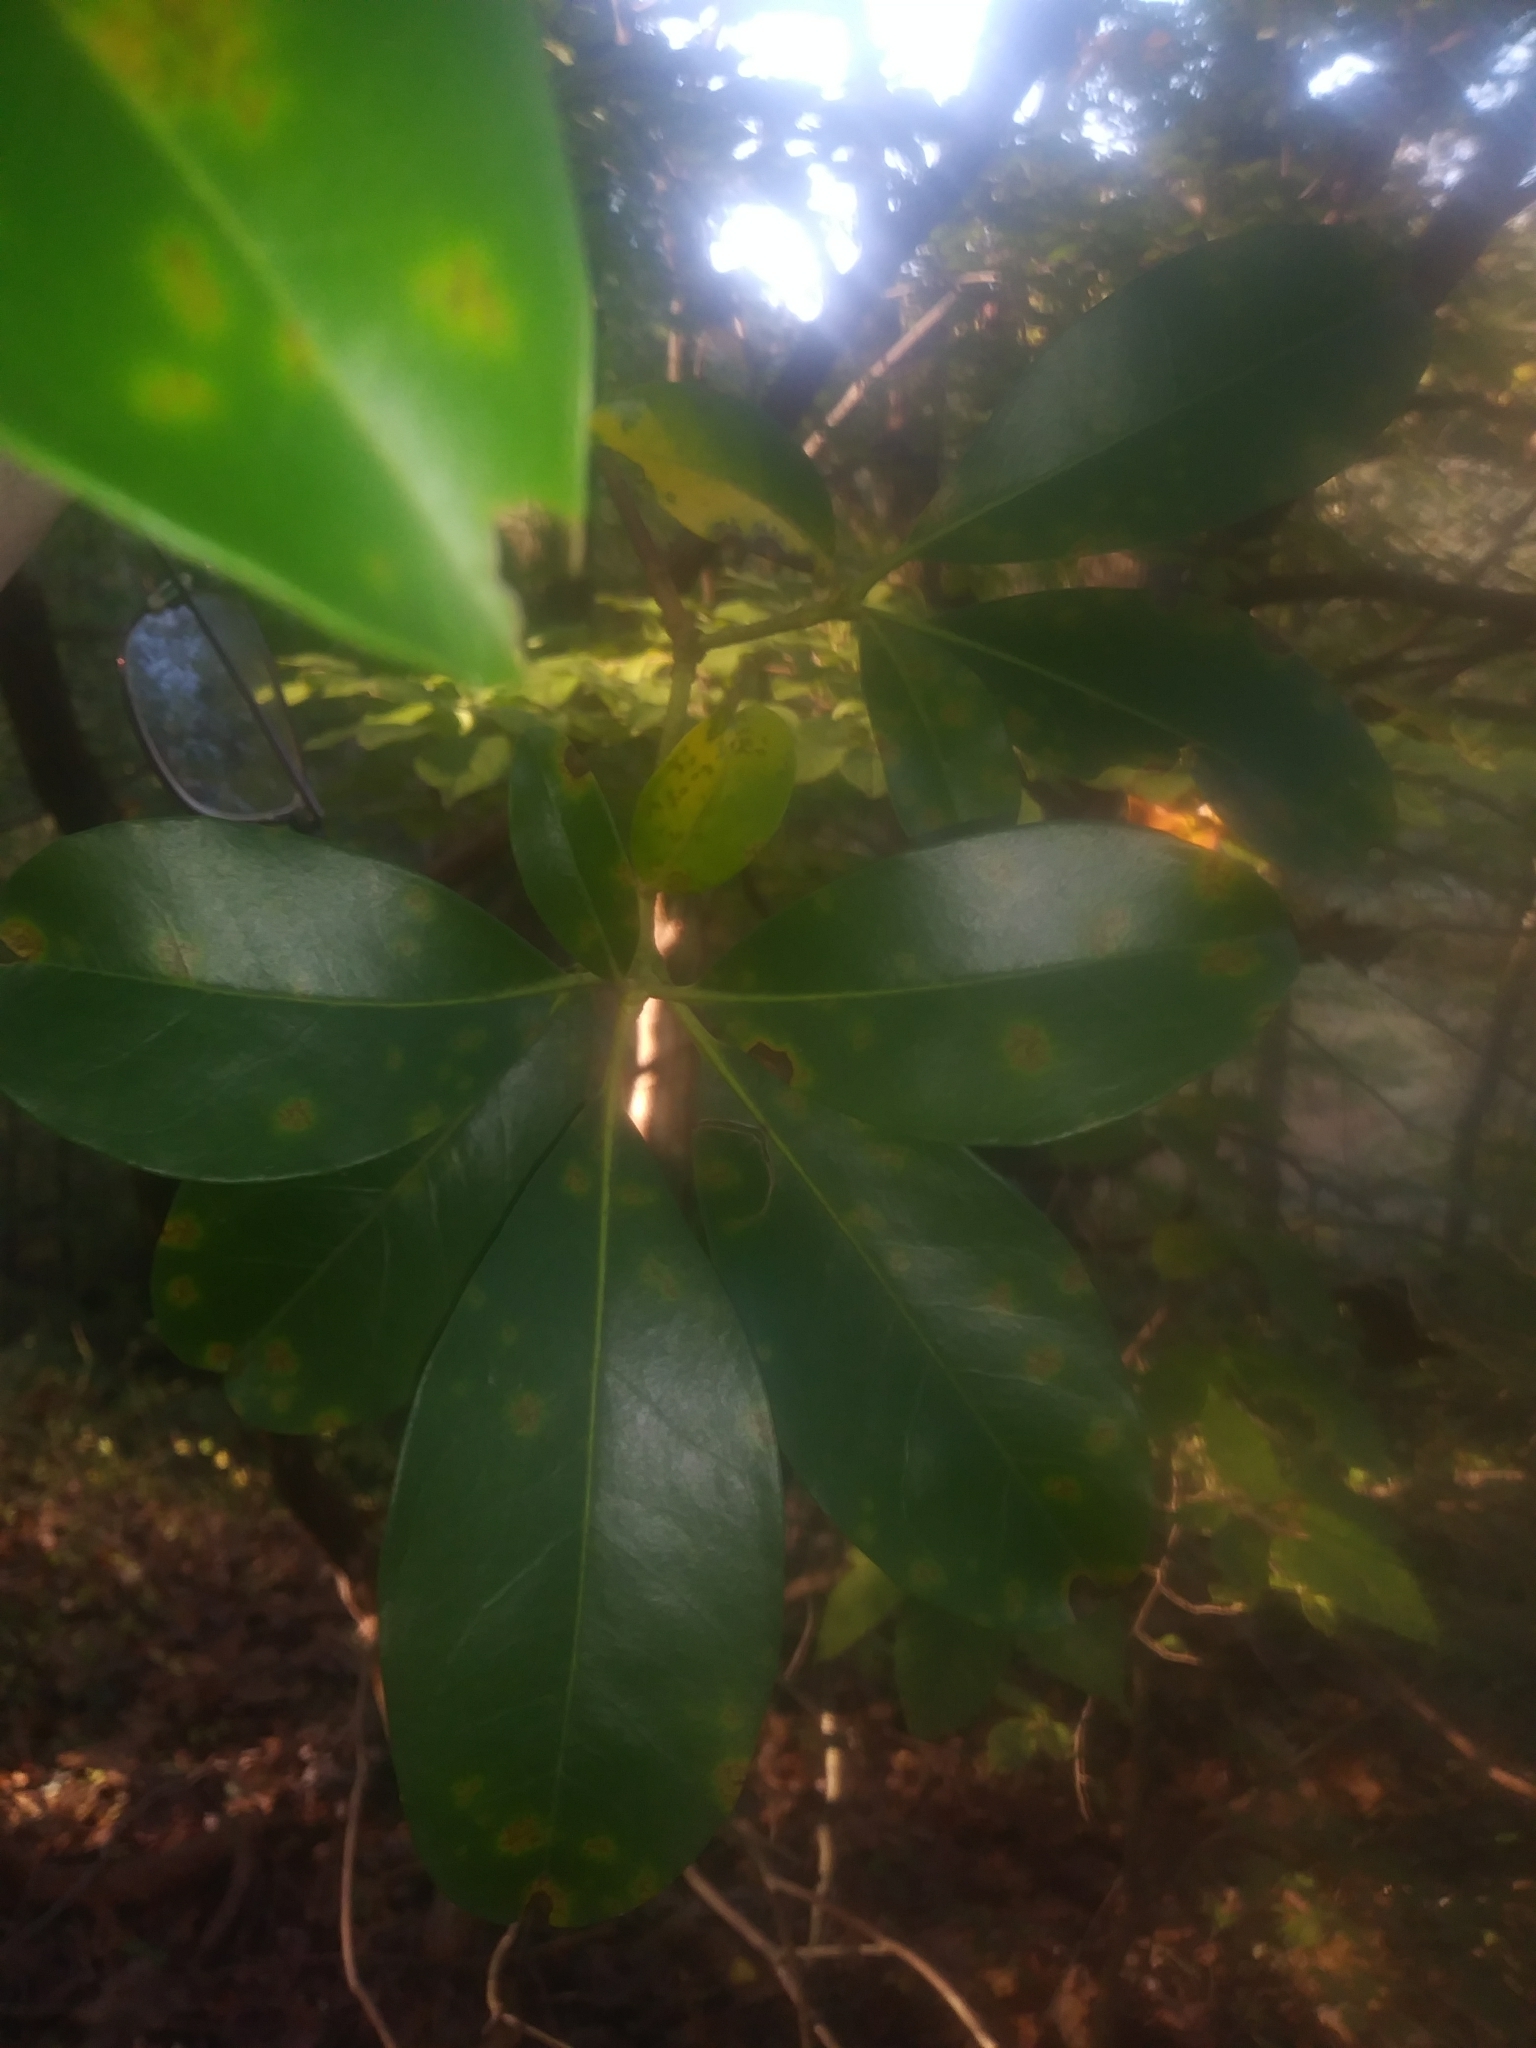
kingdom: Plantae
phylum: Tracheophyta
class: Magnoliopsida
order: Ericales
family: Ericaceae
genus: Kalmia
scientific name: Kalmia latifolia
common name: Mountain-laurel
